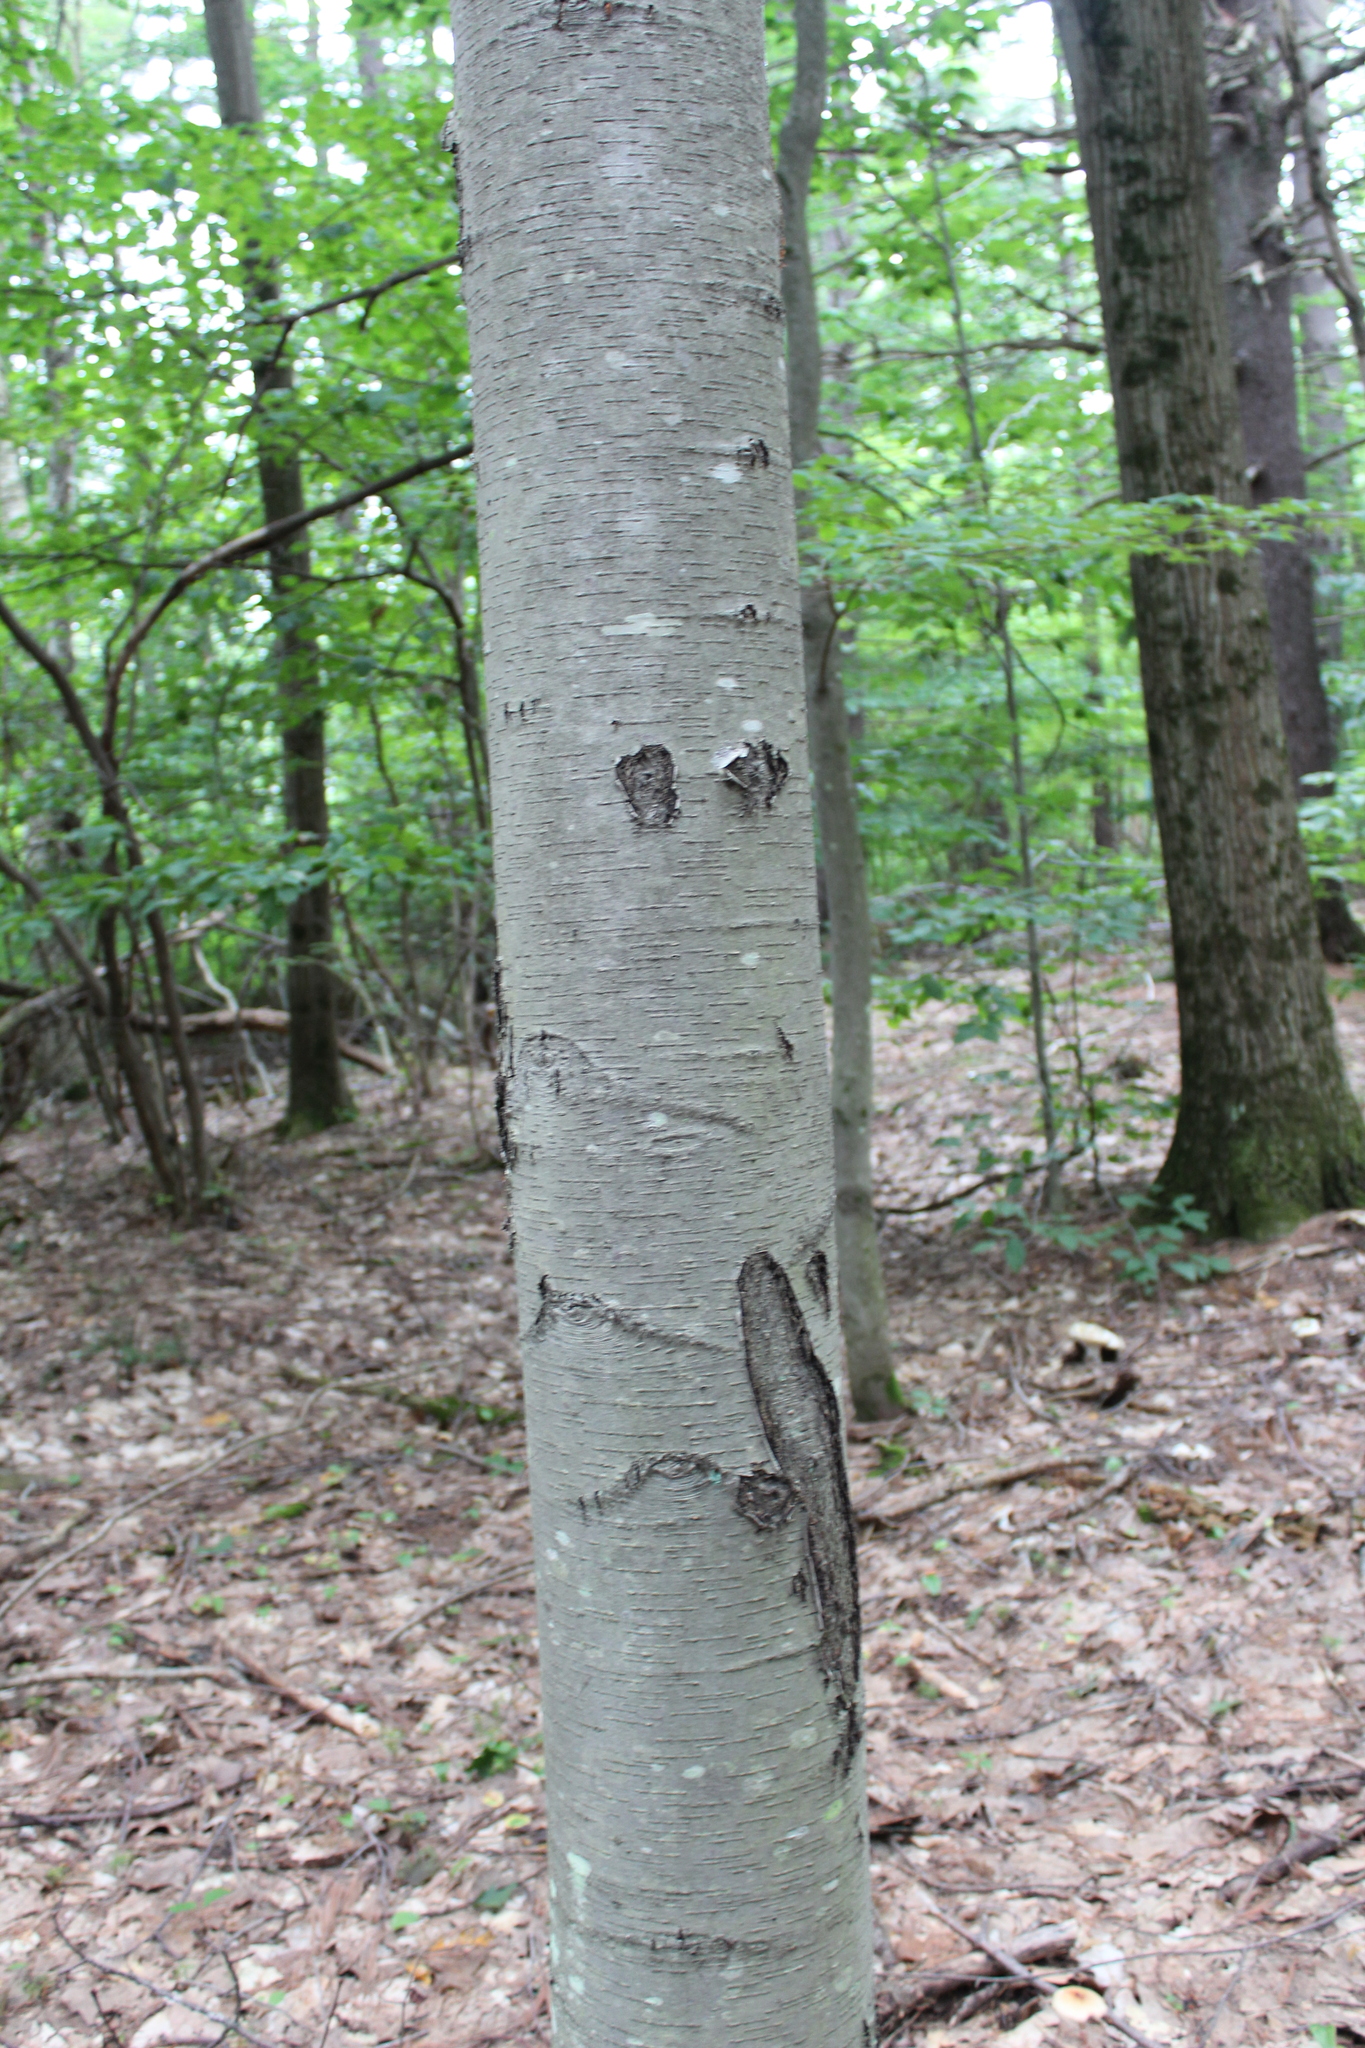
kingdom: Plantae
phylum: Tracheophyta
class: Magnoliopsida
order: Fagales
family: Betulaceae
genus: Betula
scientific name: Betula lenta
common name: Black birch
